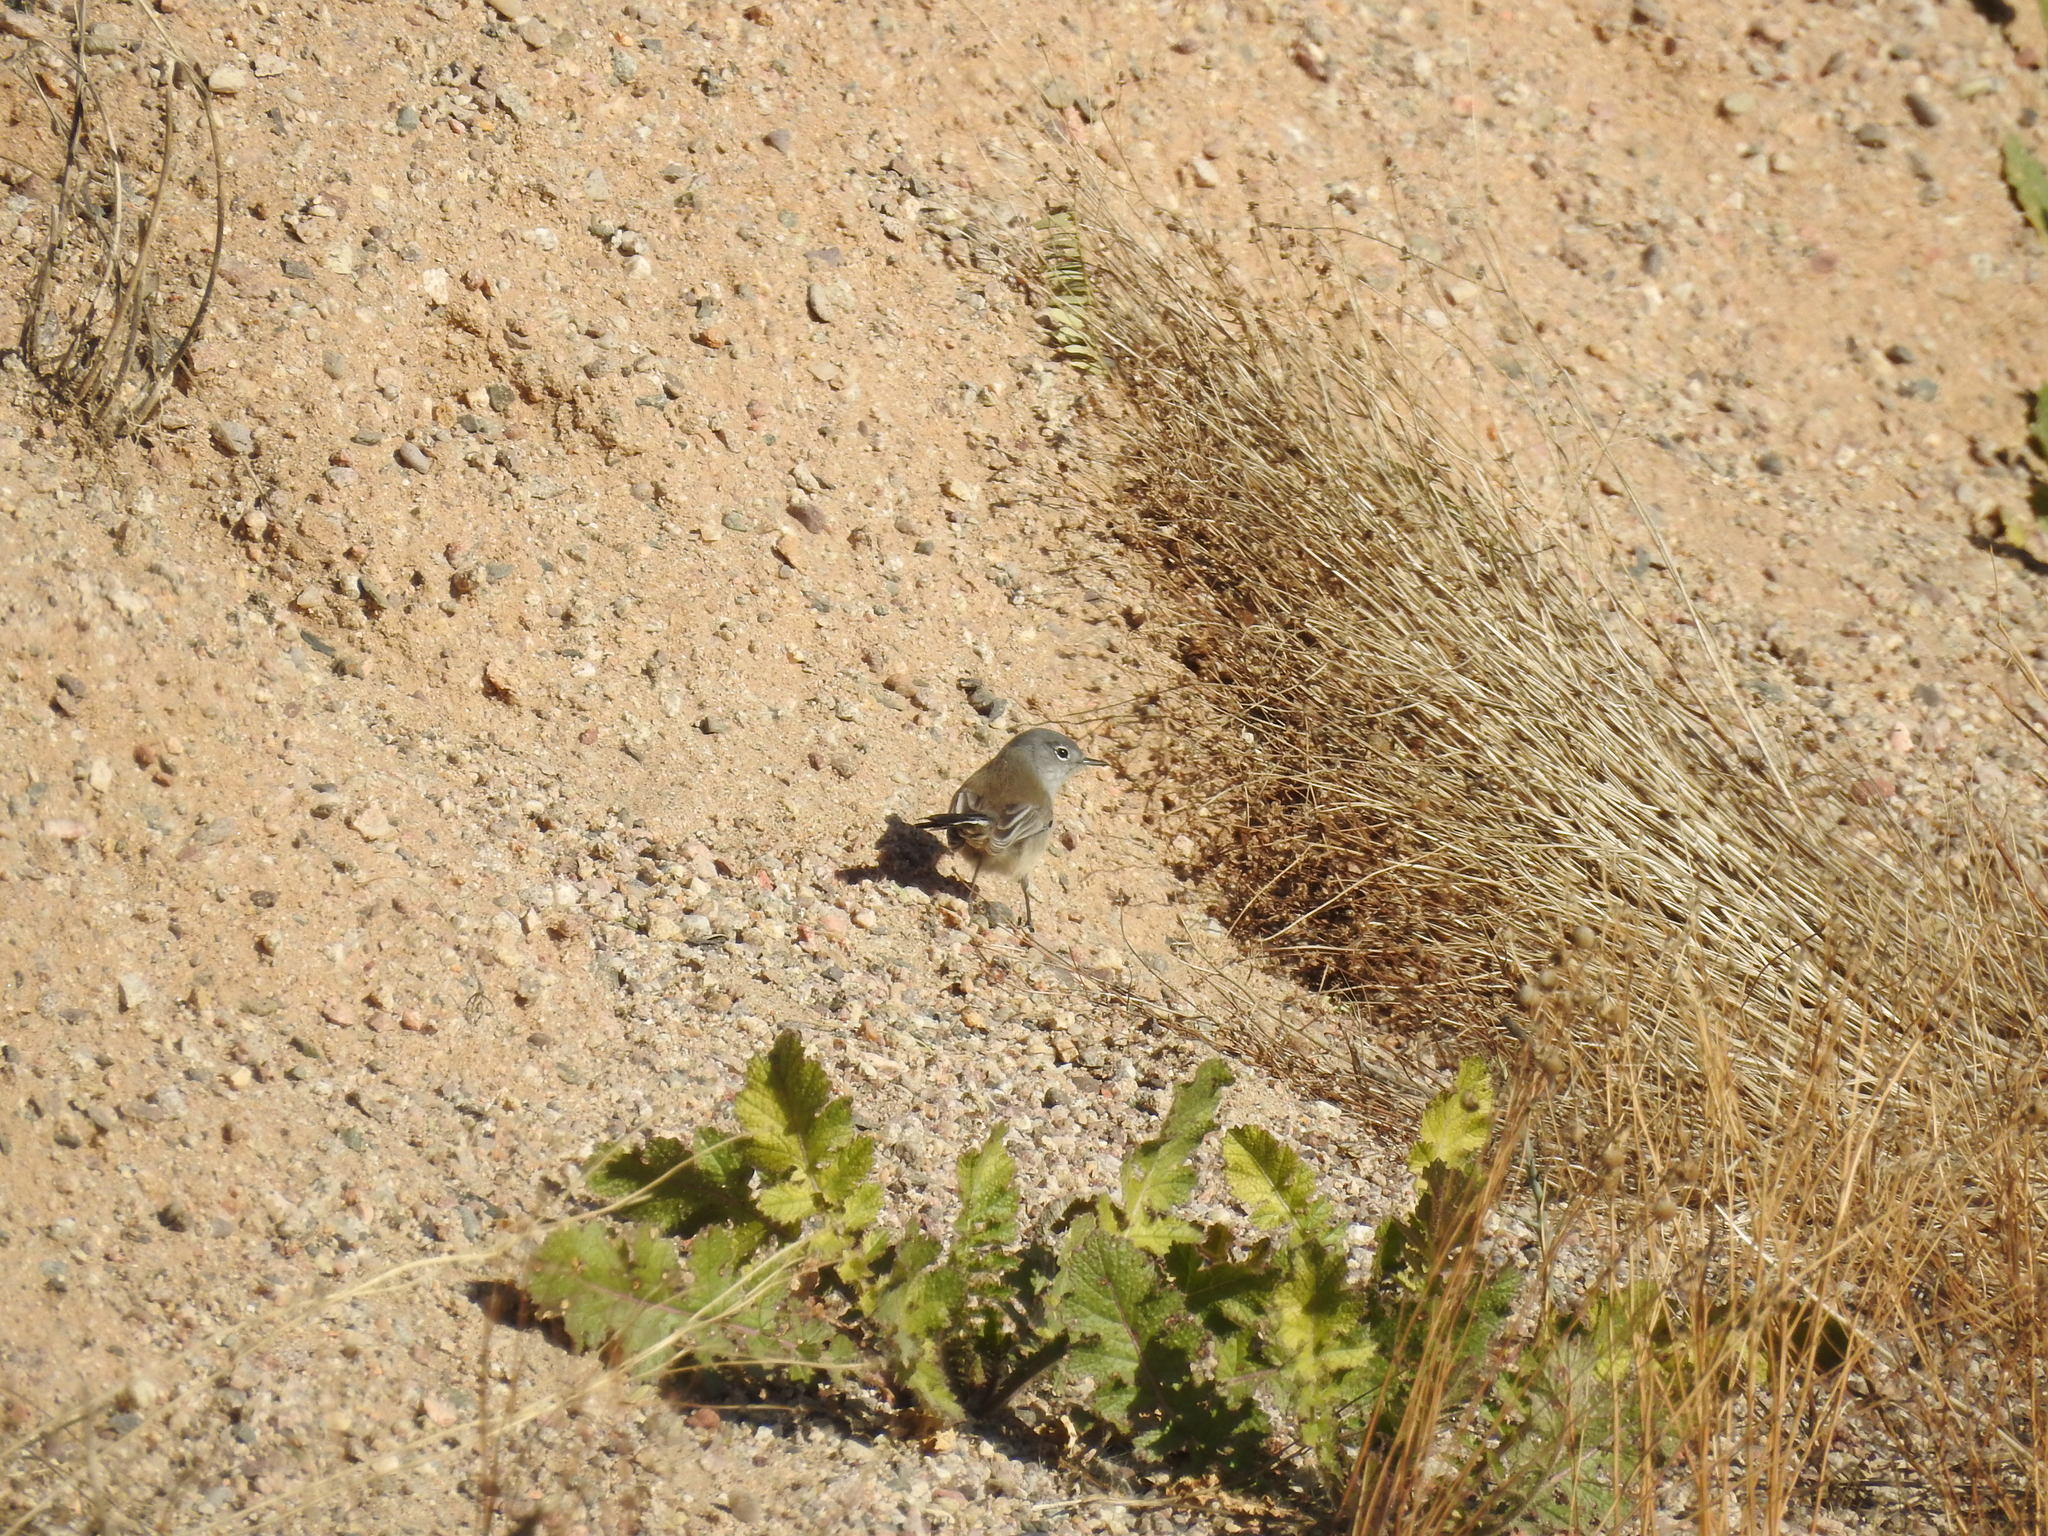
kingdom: Animalia
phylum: Chordata
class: Aves
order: Passeriformes
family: Polioptilidae
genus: Polioptila
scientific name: Polioptila melanura
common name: Black-tailed gnatcatcher
